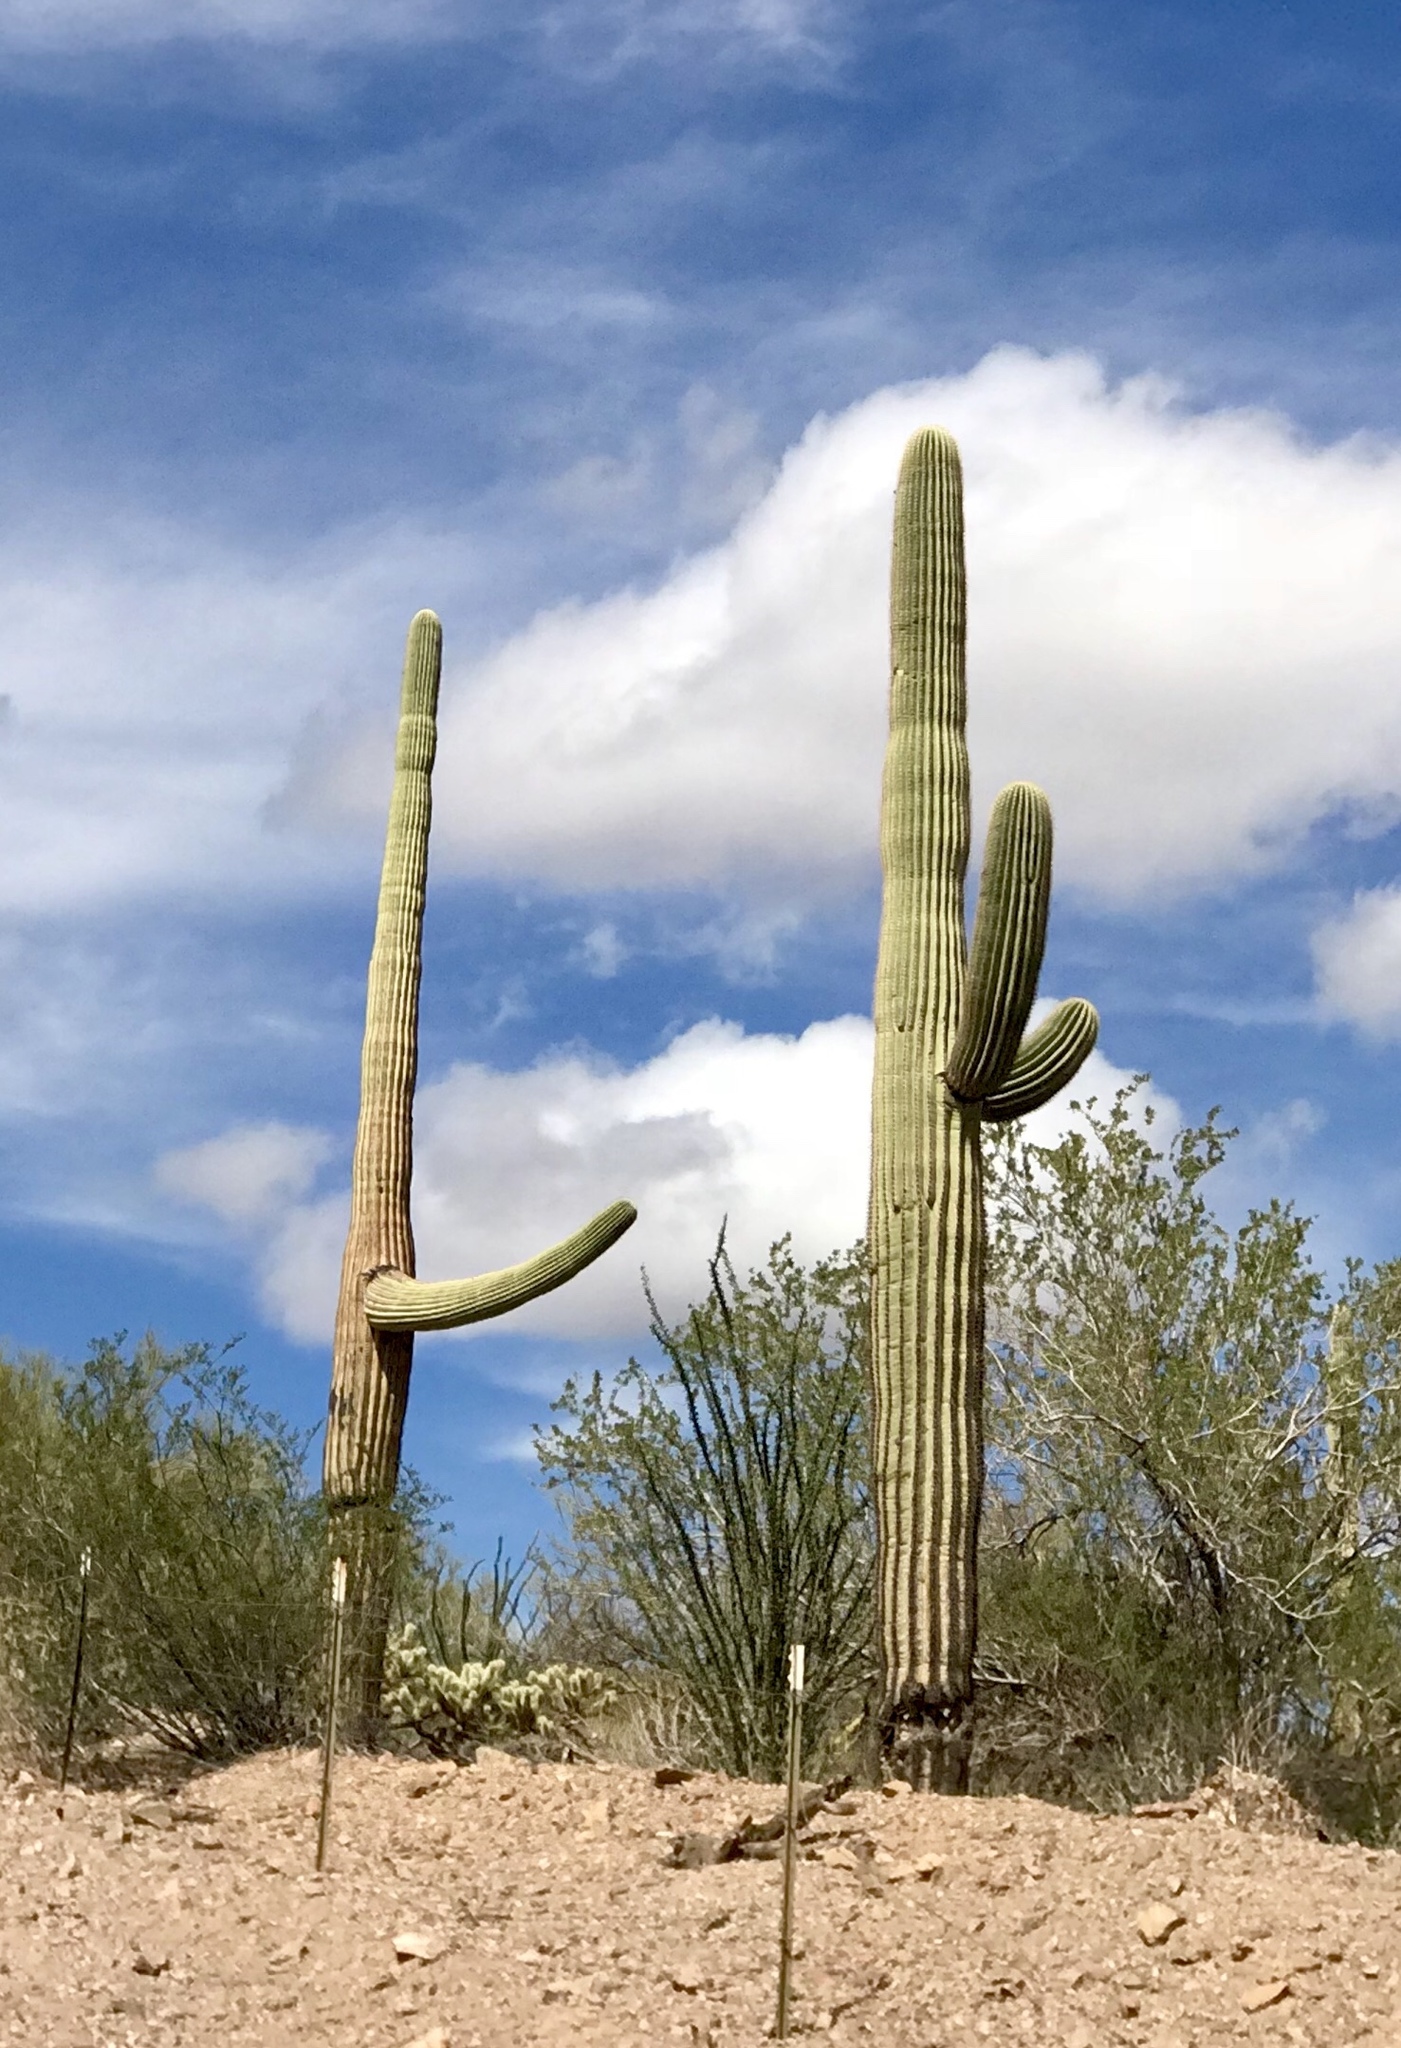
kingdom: Plantae
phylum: Tracheophyta
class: Magnoliopsida
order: Caryophyllales
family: Cactaceae
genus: Carnegiea
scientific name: Carnegiea gigantea
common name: Saguaro
